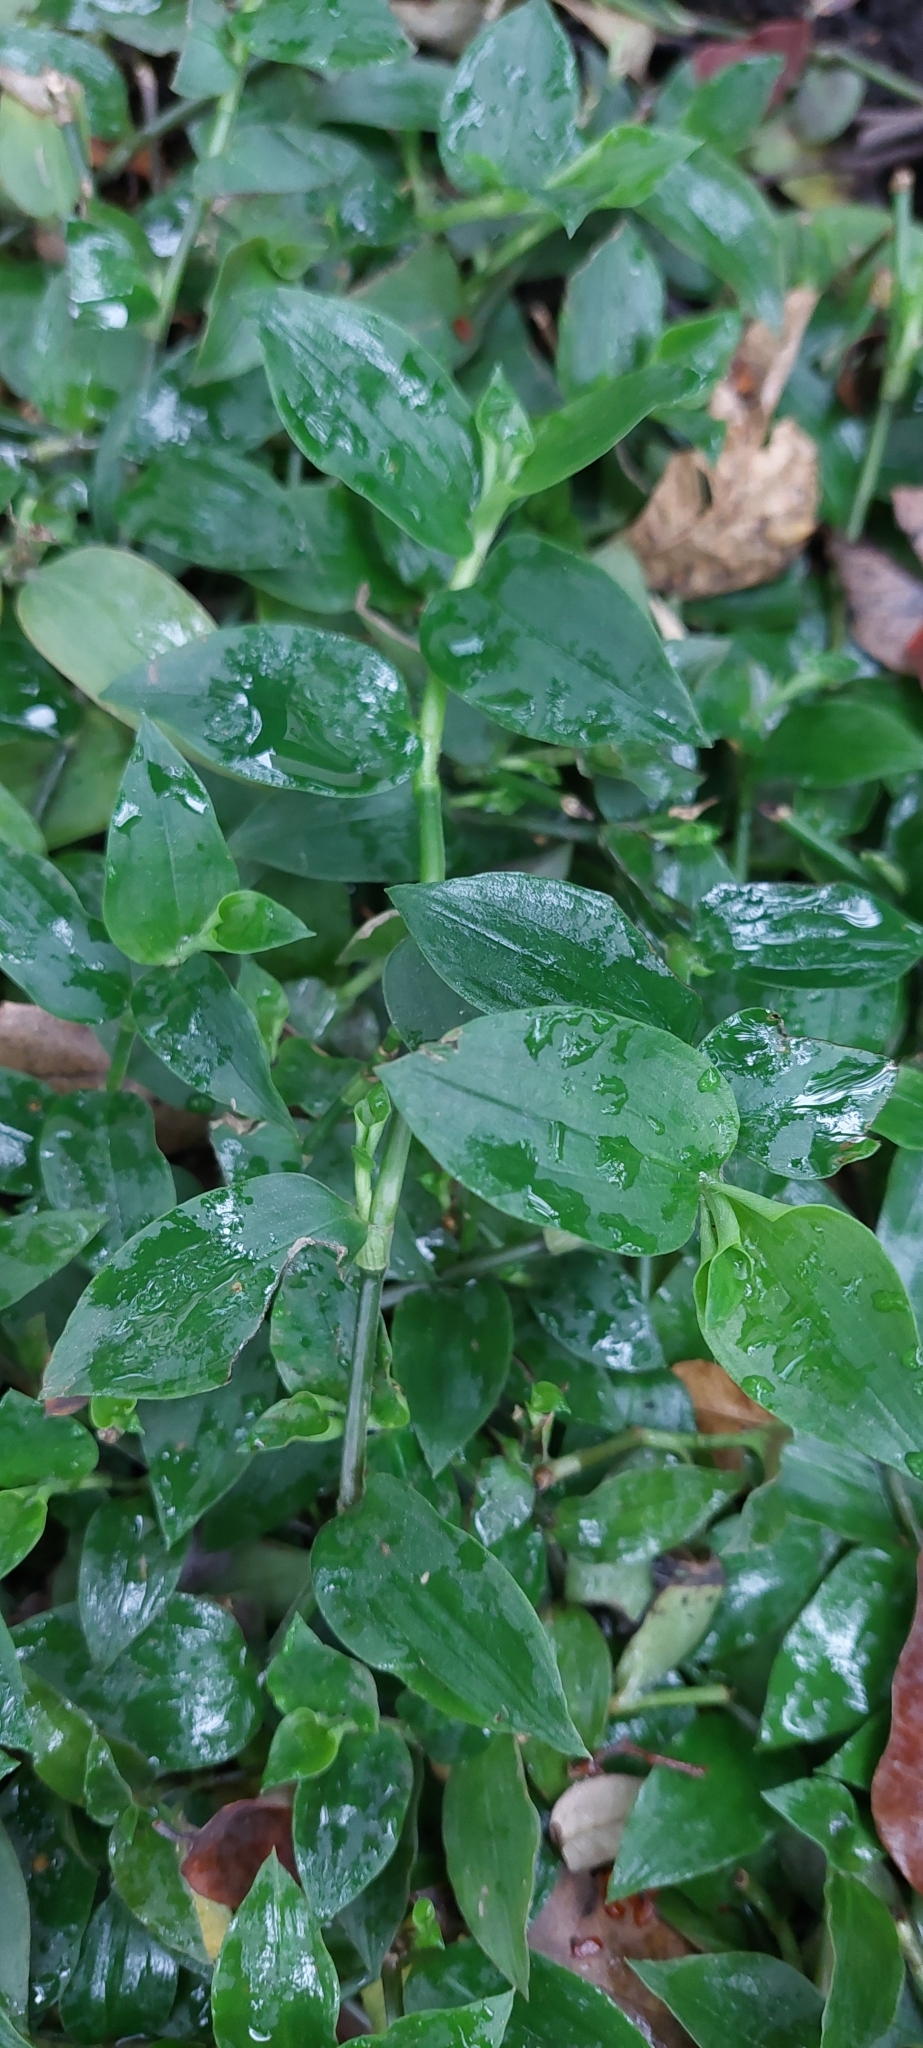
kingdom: Plantae
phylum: Tracheophyta
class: Liliopsida
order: Commelinales
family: Commelinaceae
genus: Tradescantia
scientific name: Tradescantia fluminensis
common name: Wandering-jew
